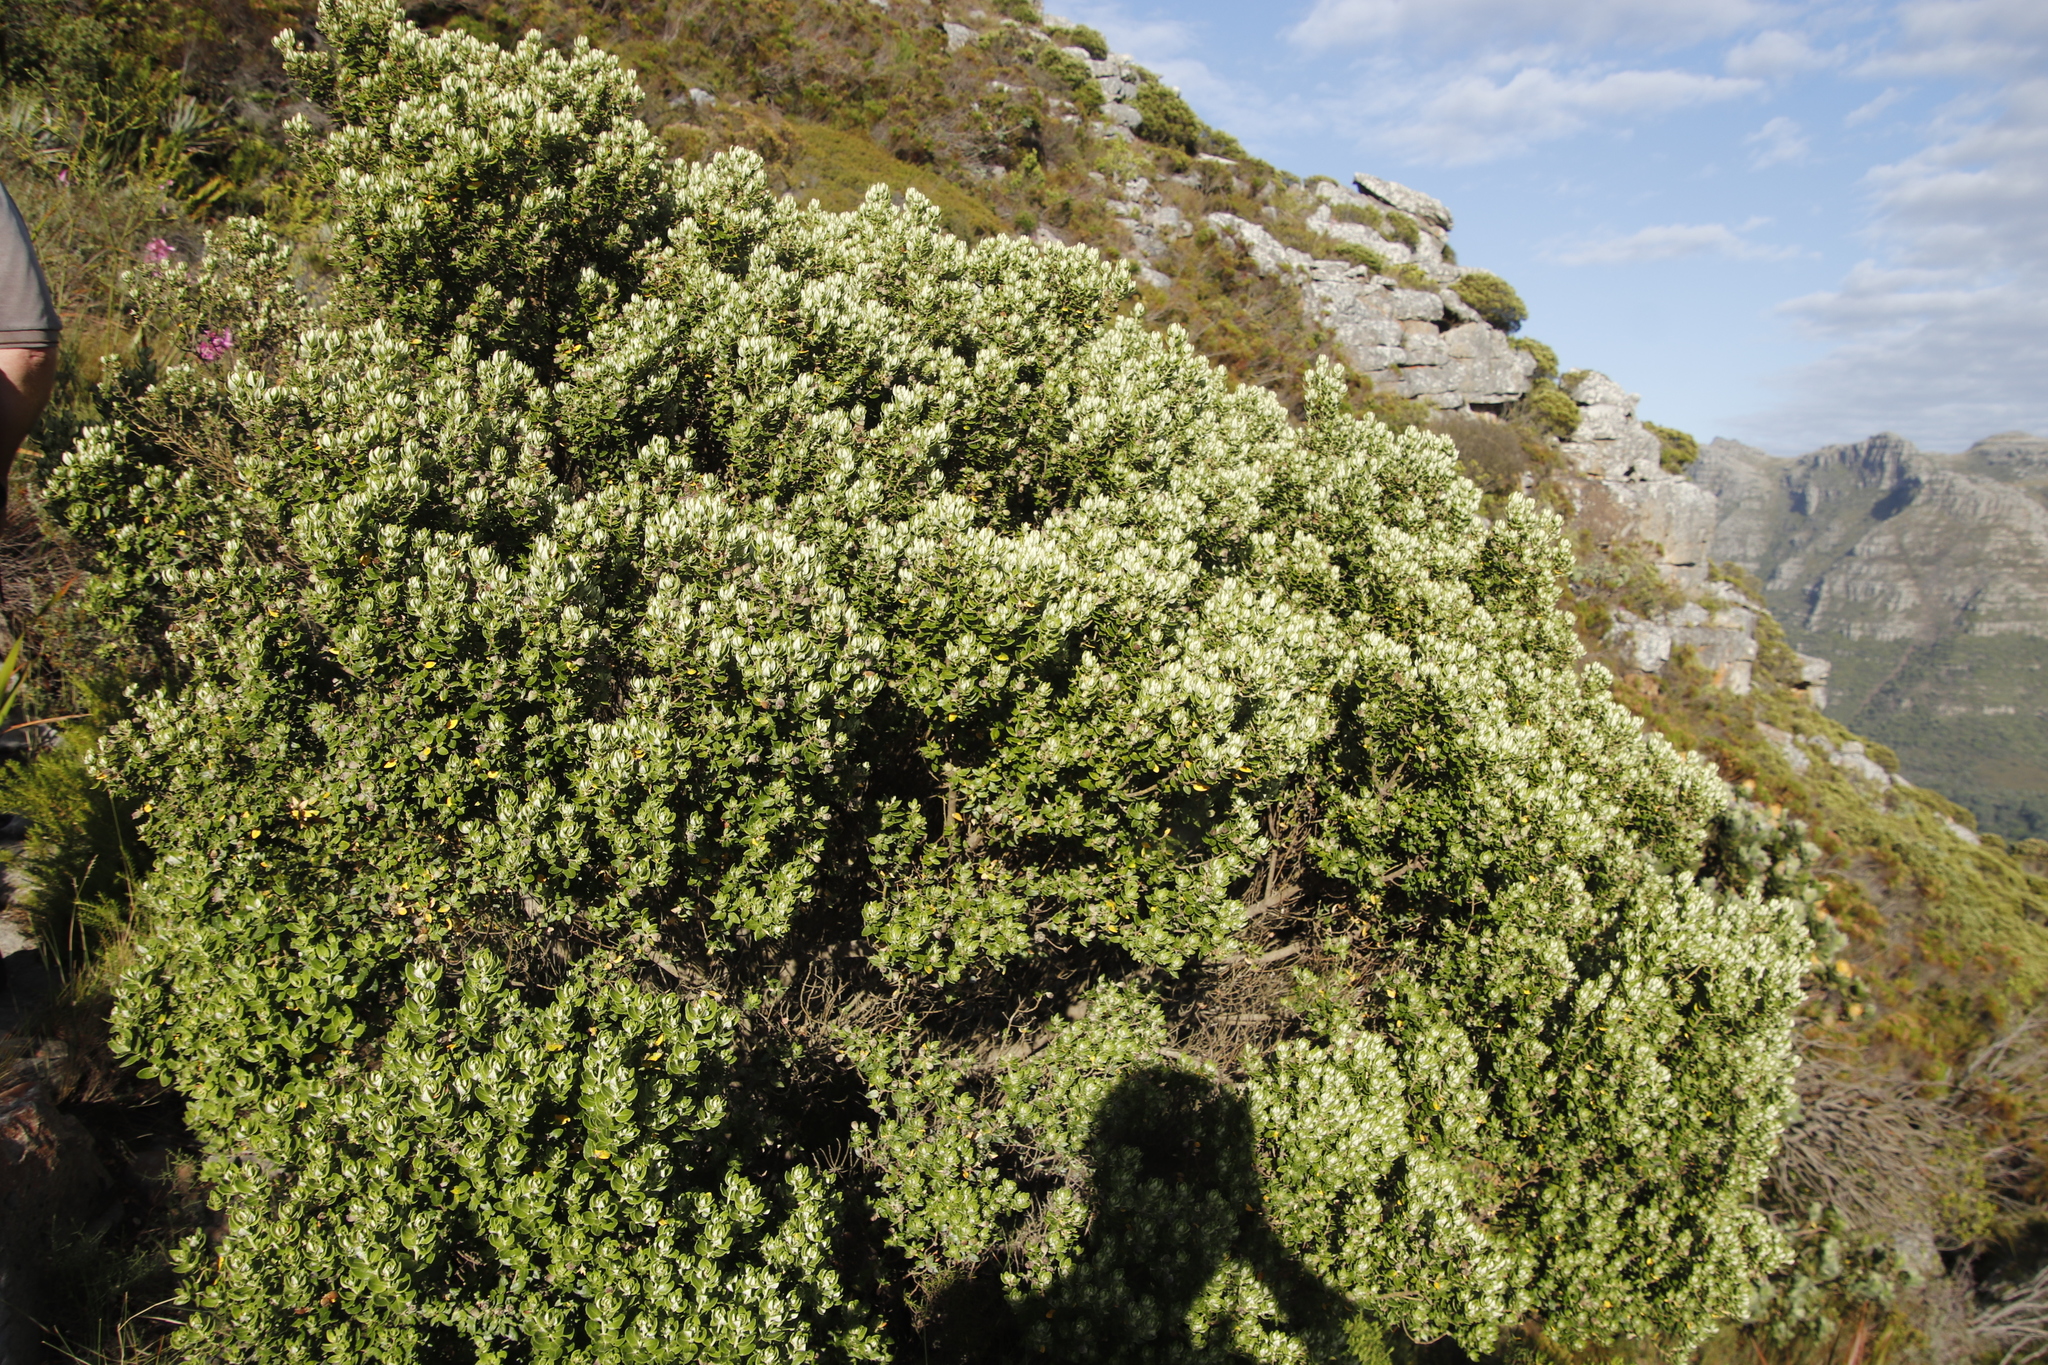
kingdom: Plantae
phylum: Tracheophyta
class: Magnoliopsida
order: Rosales
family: Rhamnaceae
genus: Phylica
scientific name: Phylica buxifolia
